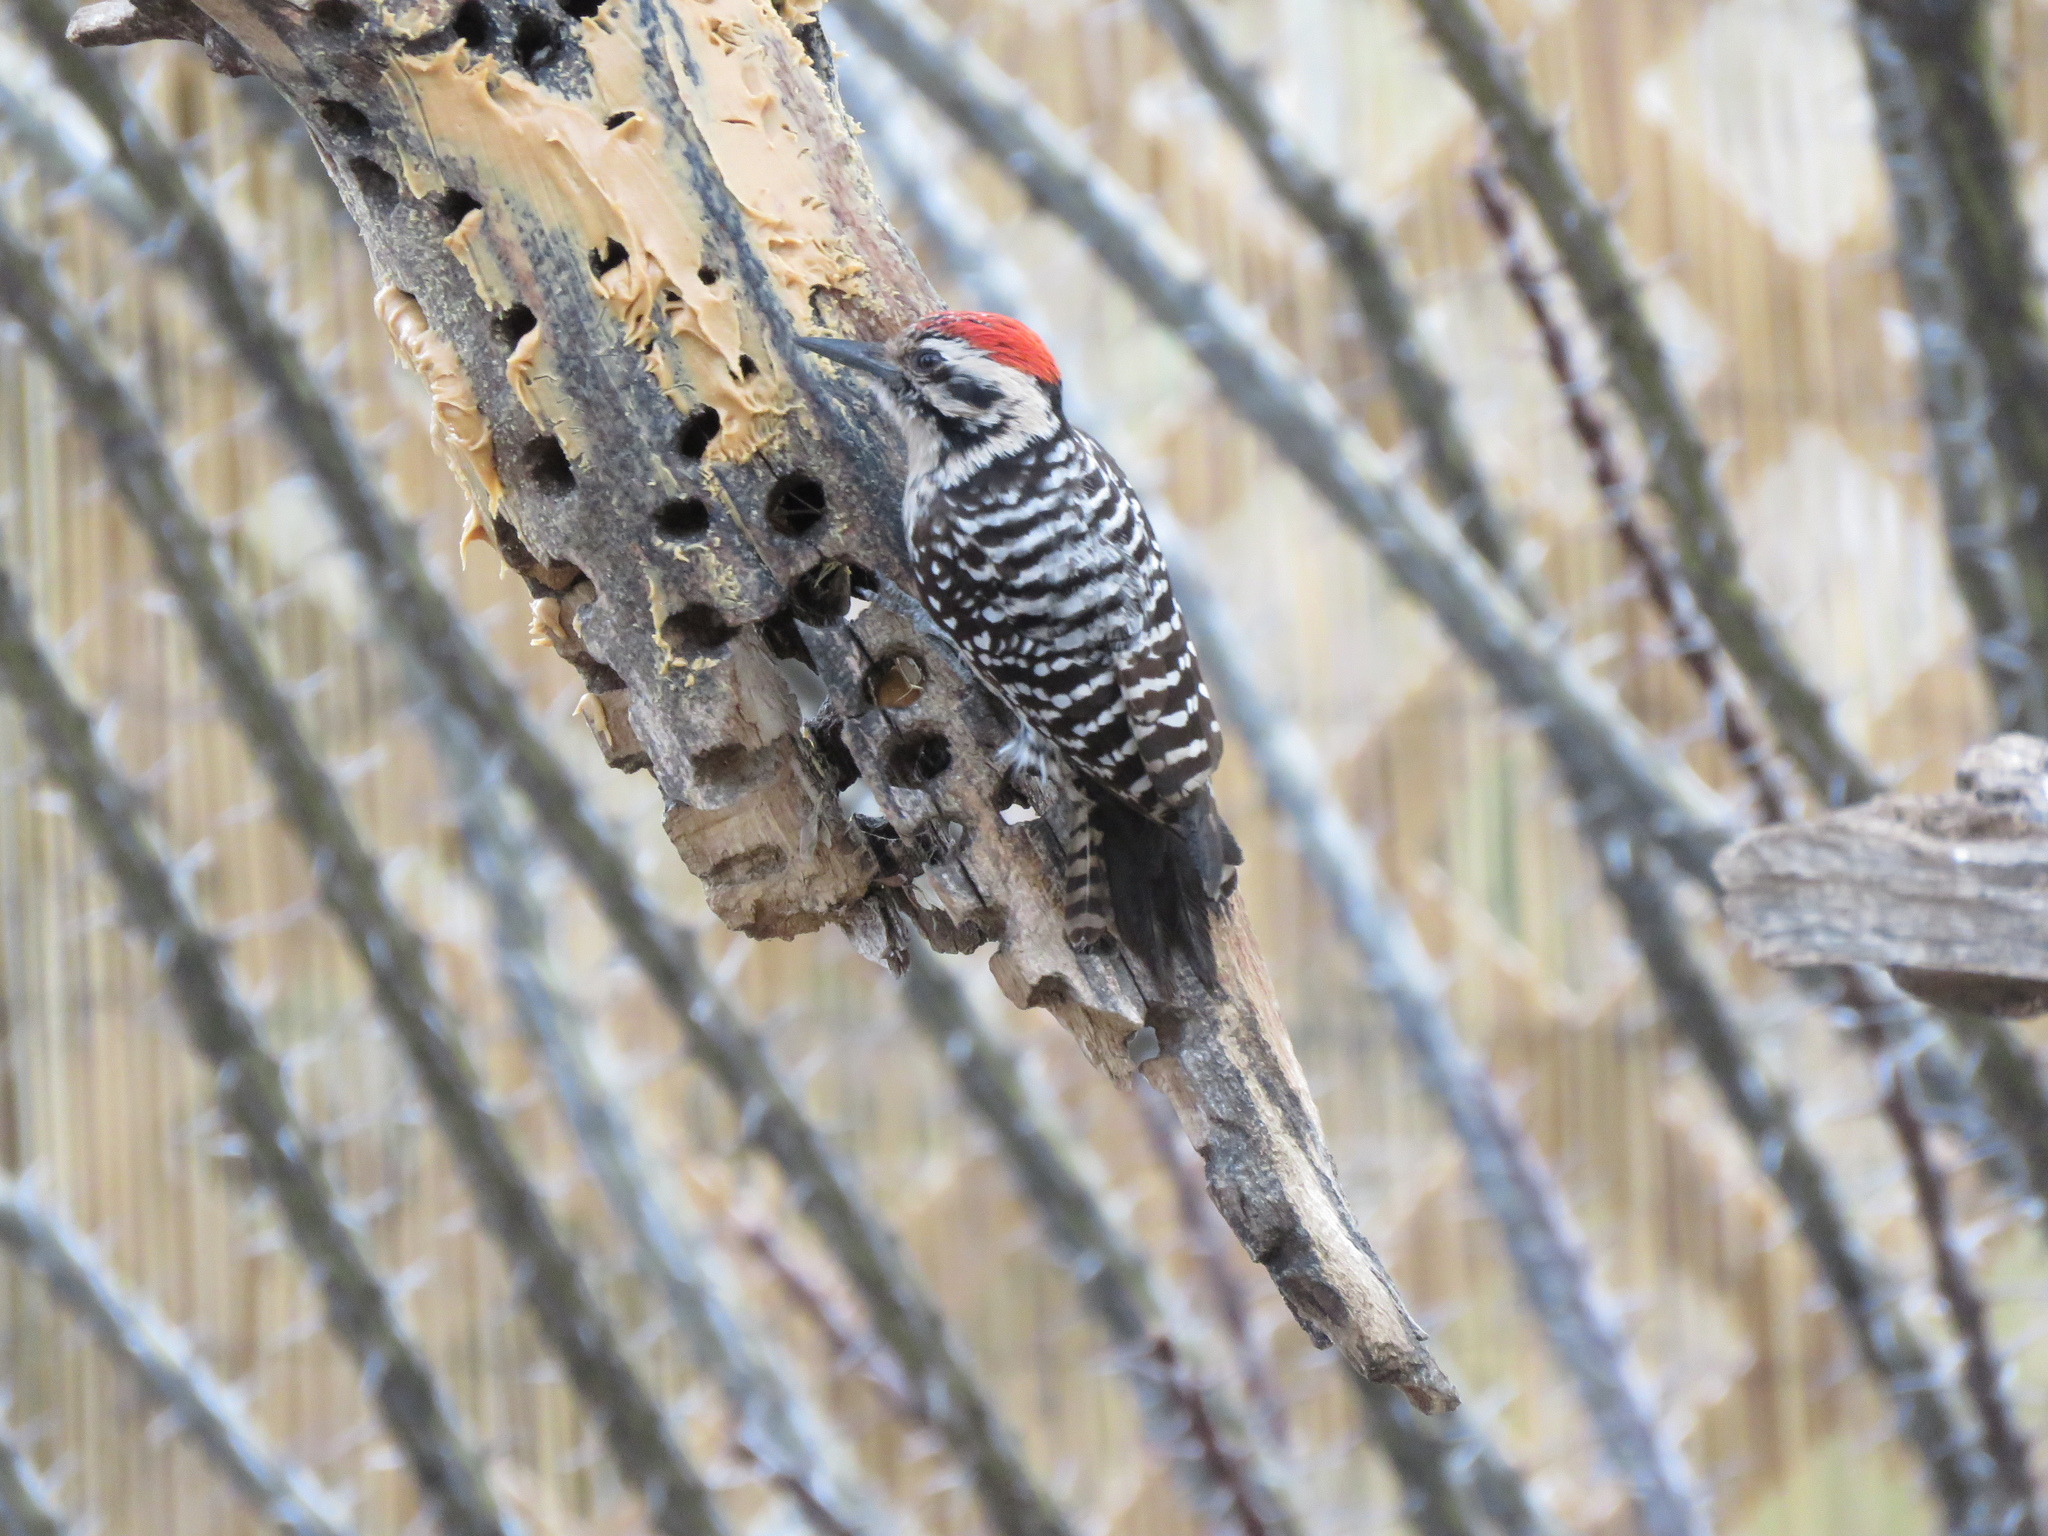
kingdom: Animalia
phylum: Chordata
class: Aves
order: Piciformes
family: Picidae
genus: Dryobates
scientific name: Dryobates scalaris
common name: Ladder-backed woodpecker
